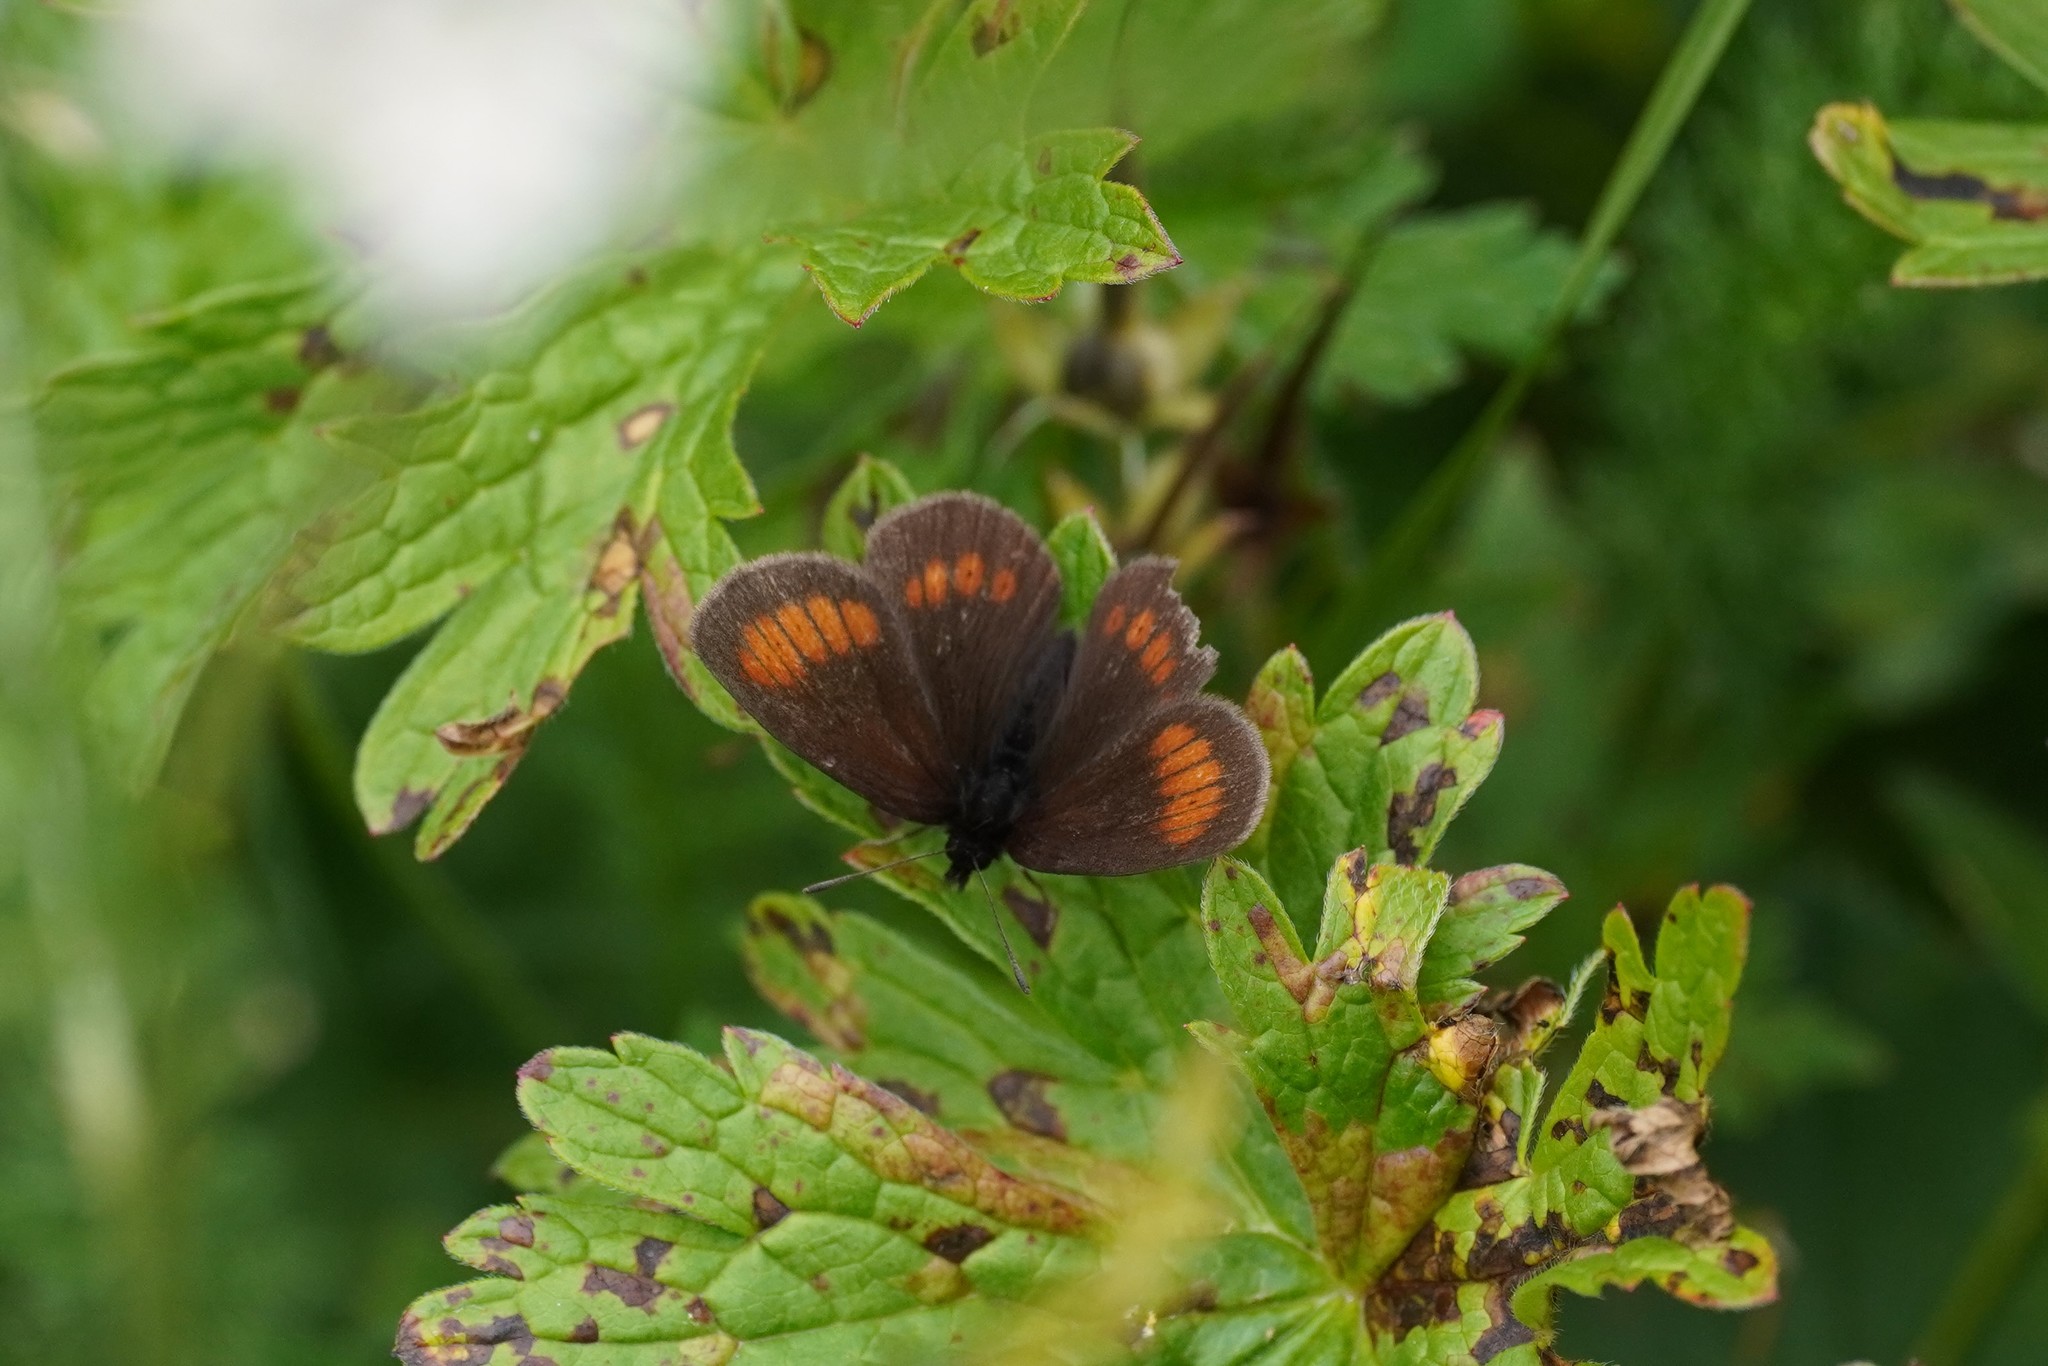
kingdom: Animalia
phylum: Arthropoda
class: Insecta
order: Lepidoptera
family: Nymphalidae
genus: Erebia
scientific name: Erebia melampus
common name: Lesser mountain ringlet
